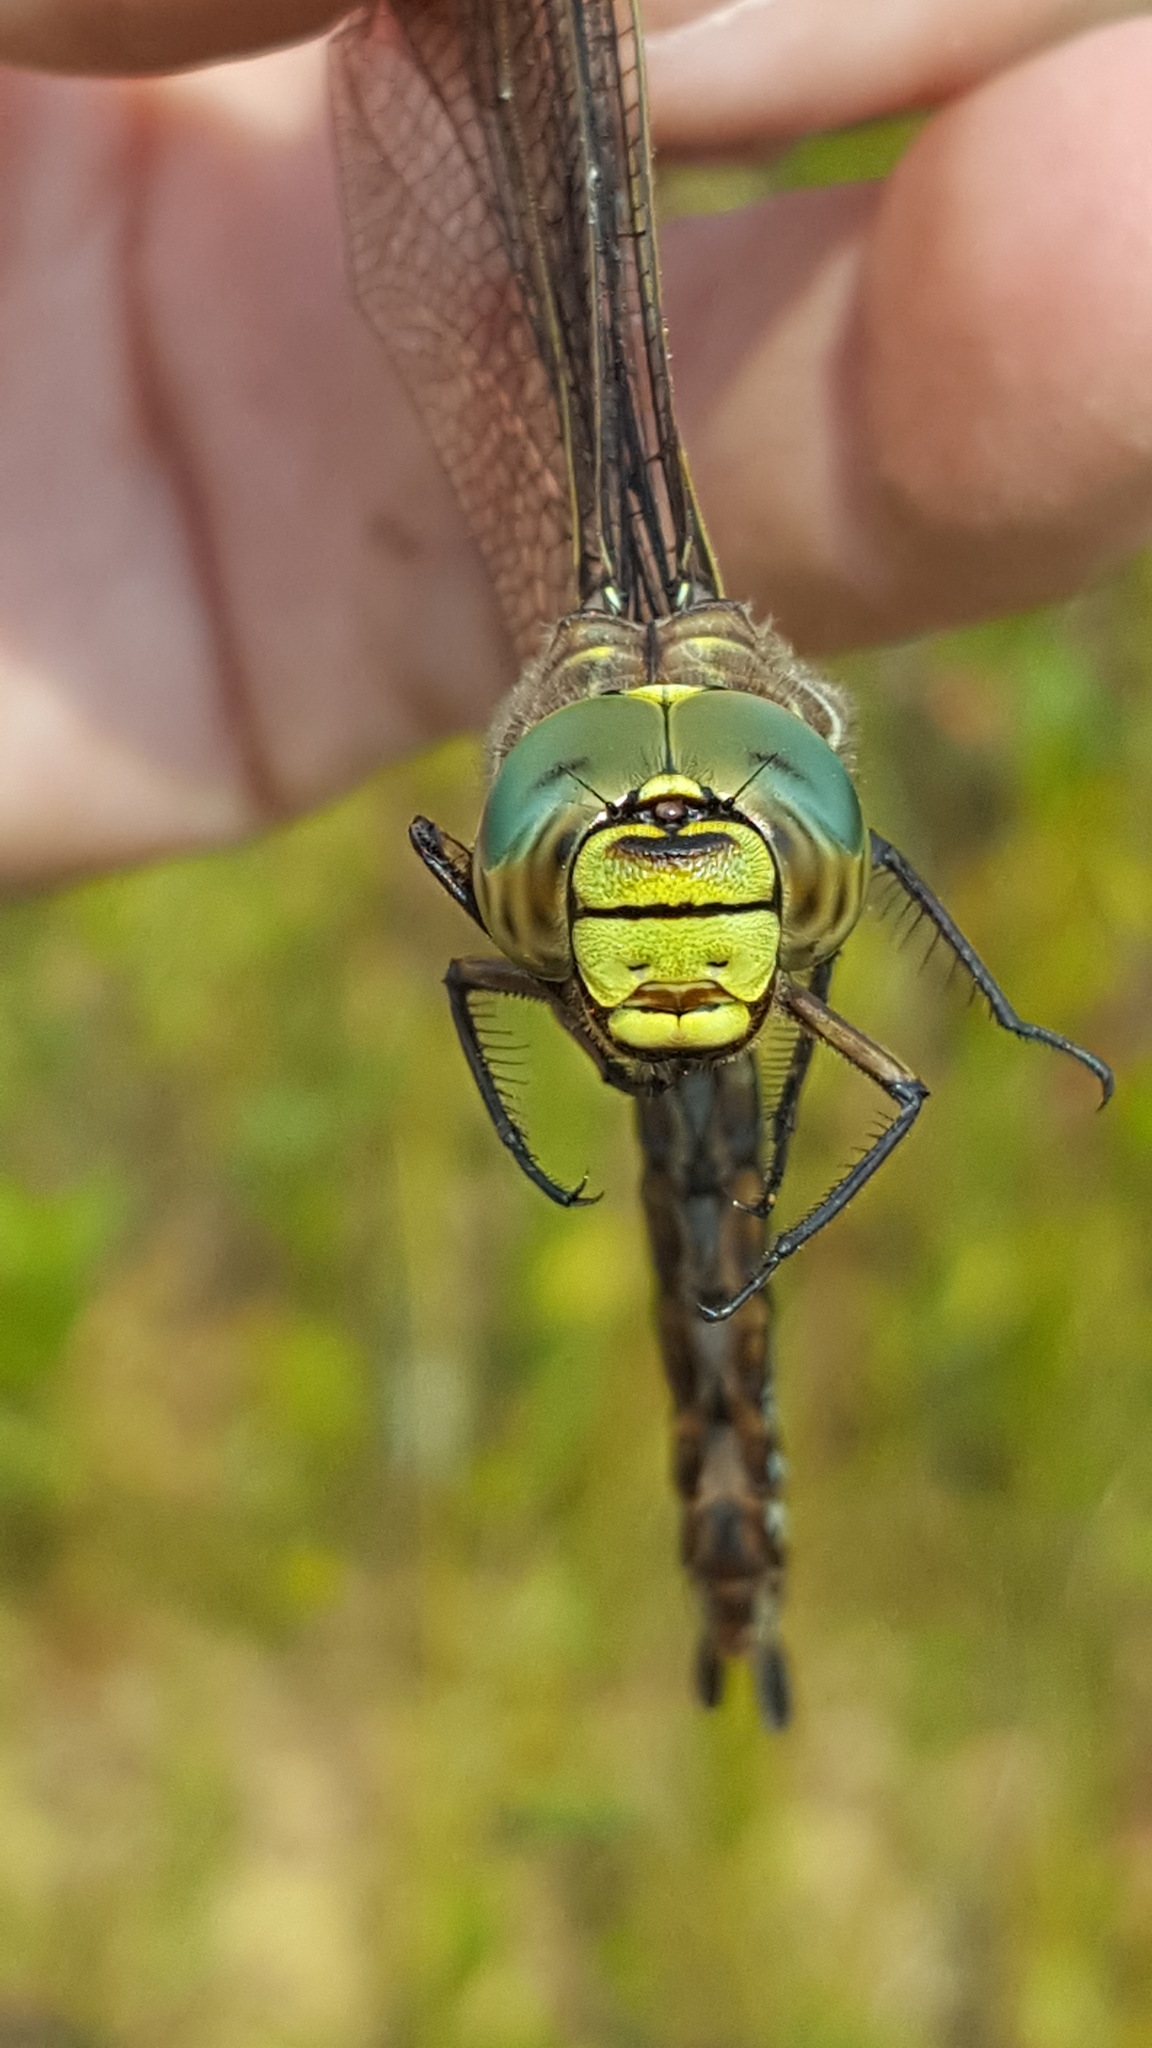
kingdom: Animalia
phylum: Arthropoda
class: Insecta
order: Odonata
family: Aeshnidae
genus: Aeshna
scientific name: Aeshna subarctica
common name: Subarctic darner
